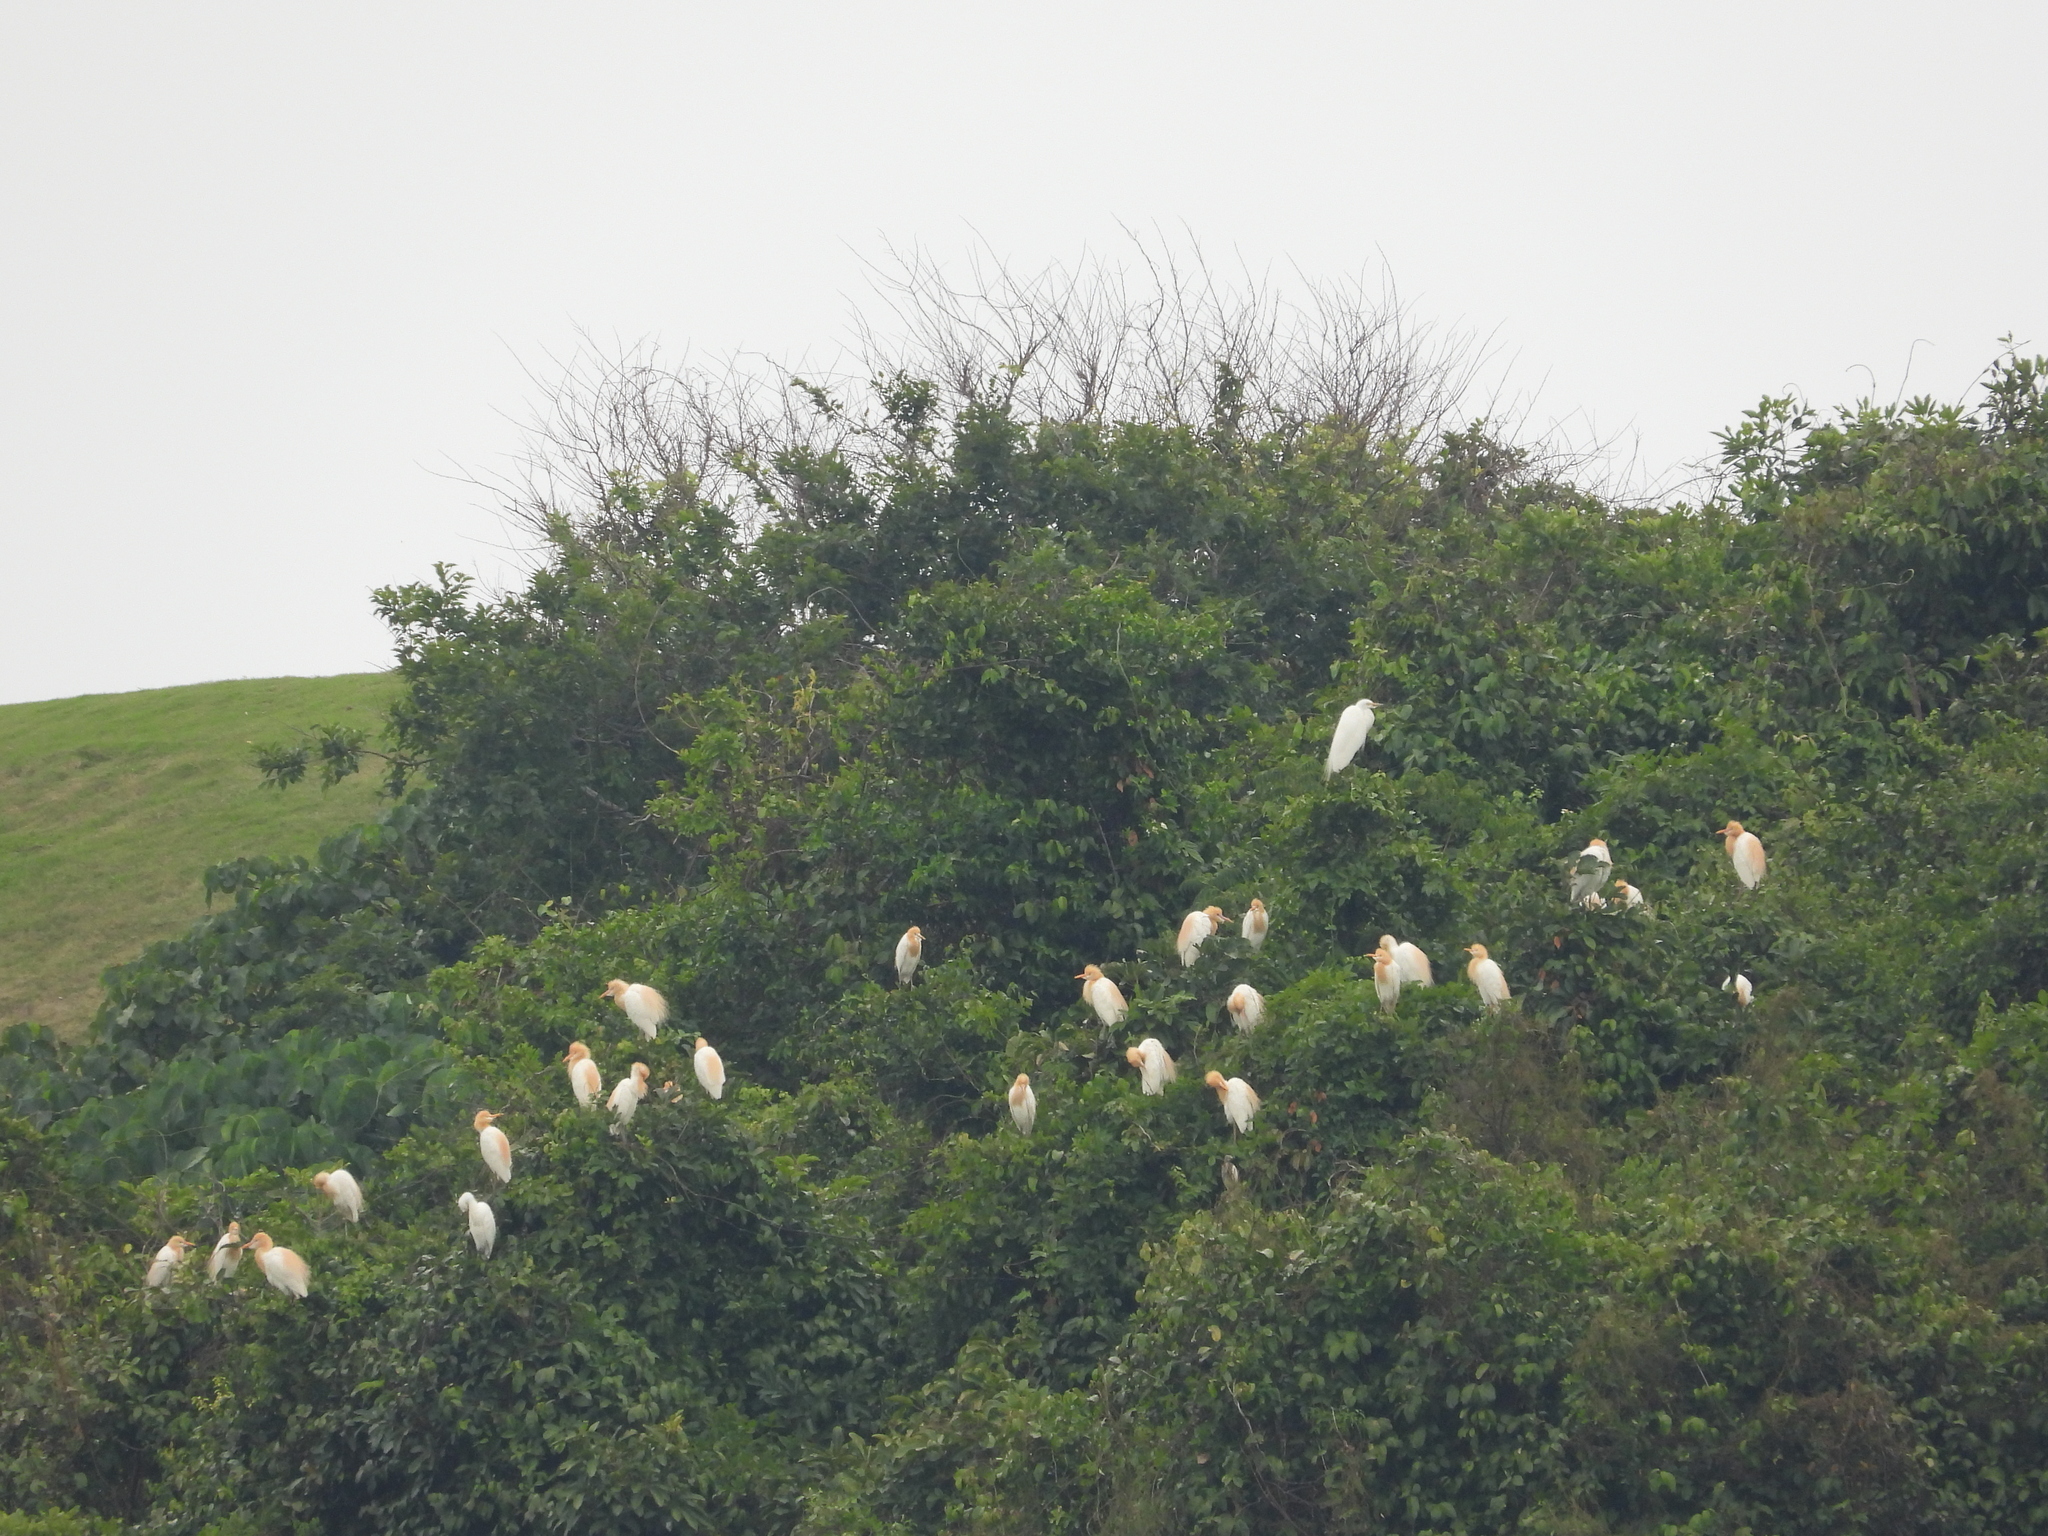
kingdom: Animalia
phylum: Chordata
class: Aves
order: Pelecaniformes
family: Ardeidae
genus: Bubulcus
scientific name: Bubulcus coromandus
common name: Eastern cattle egret
